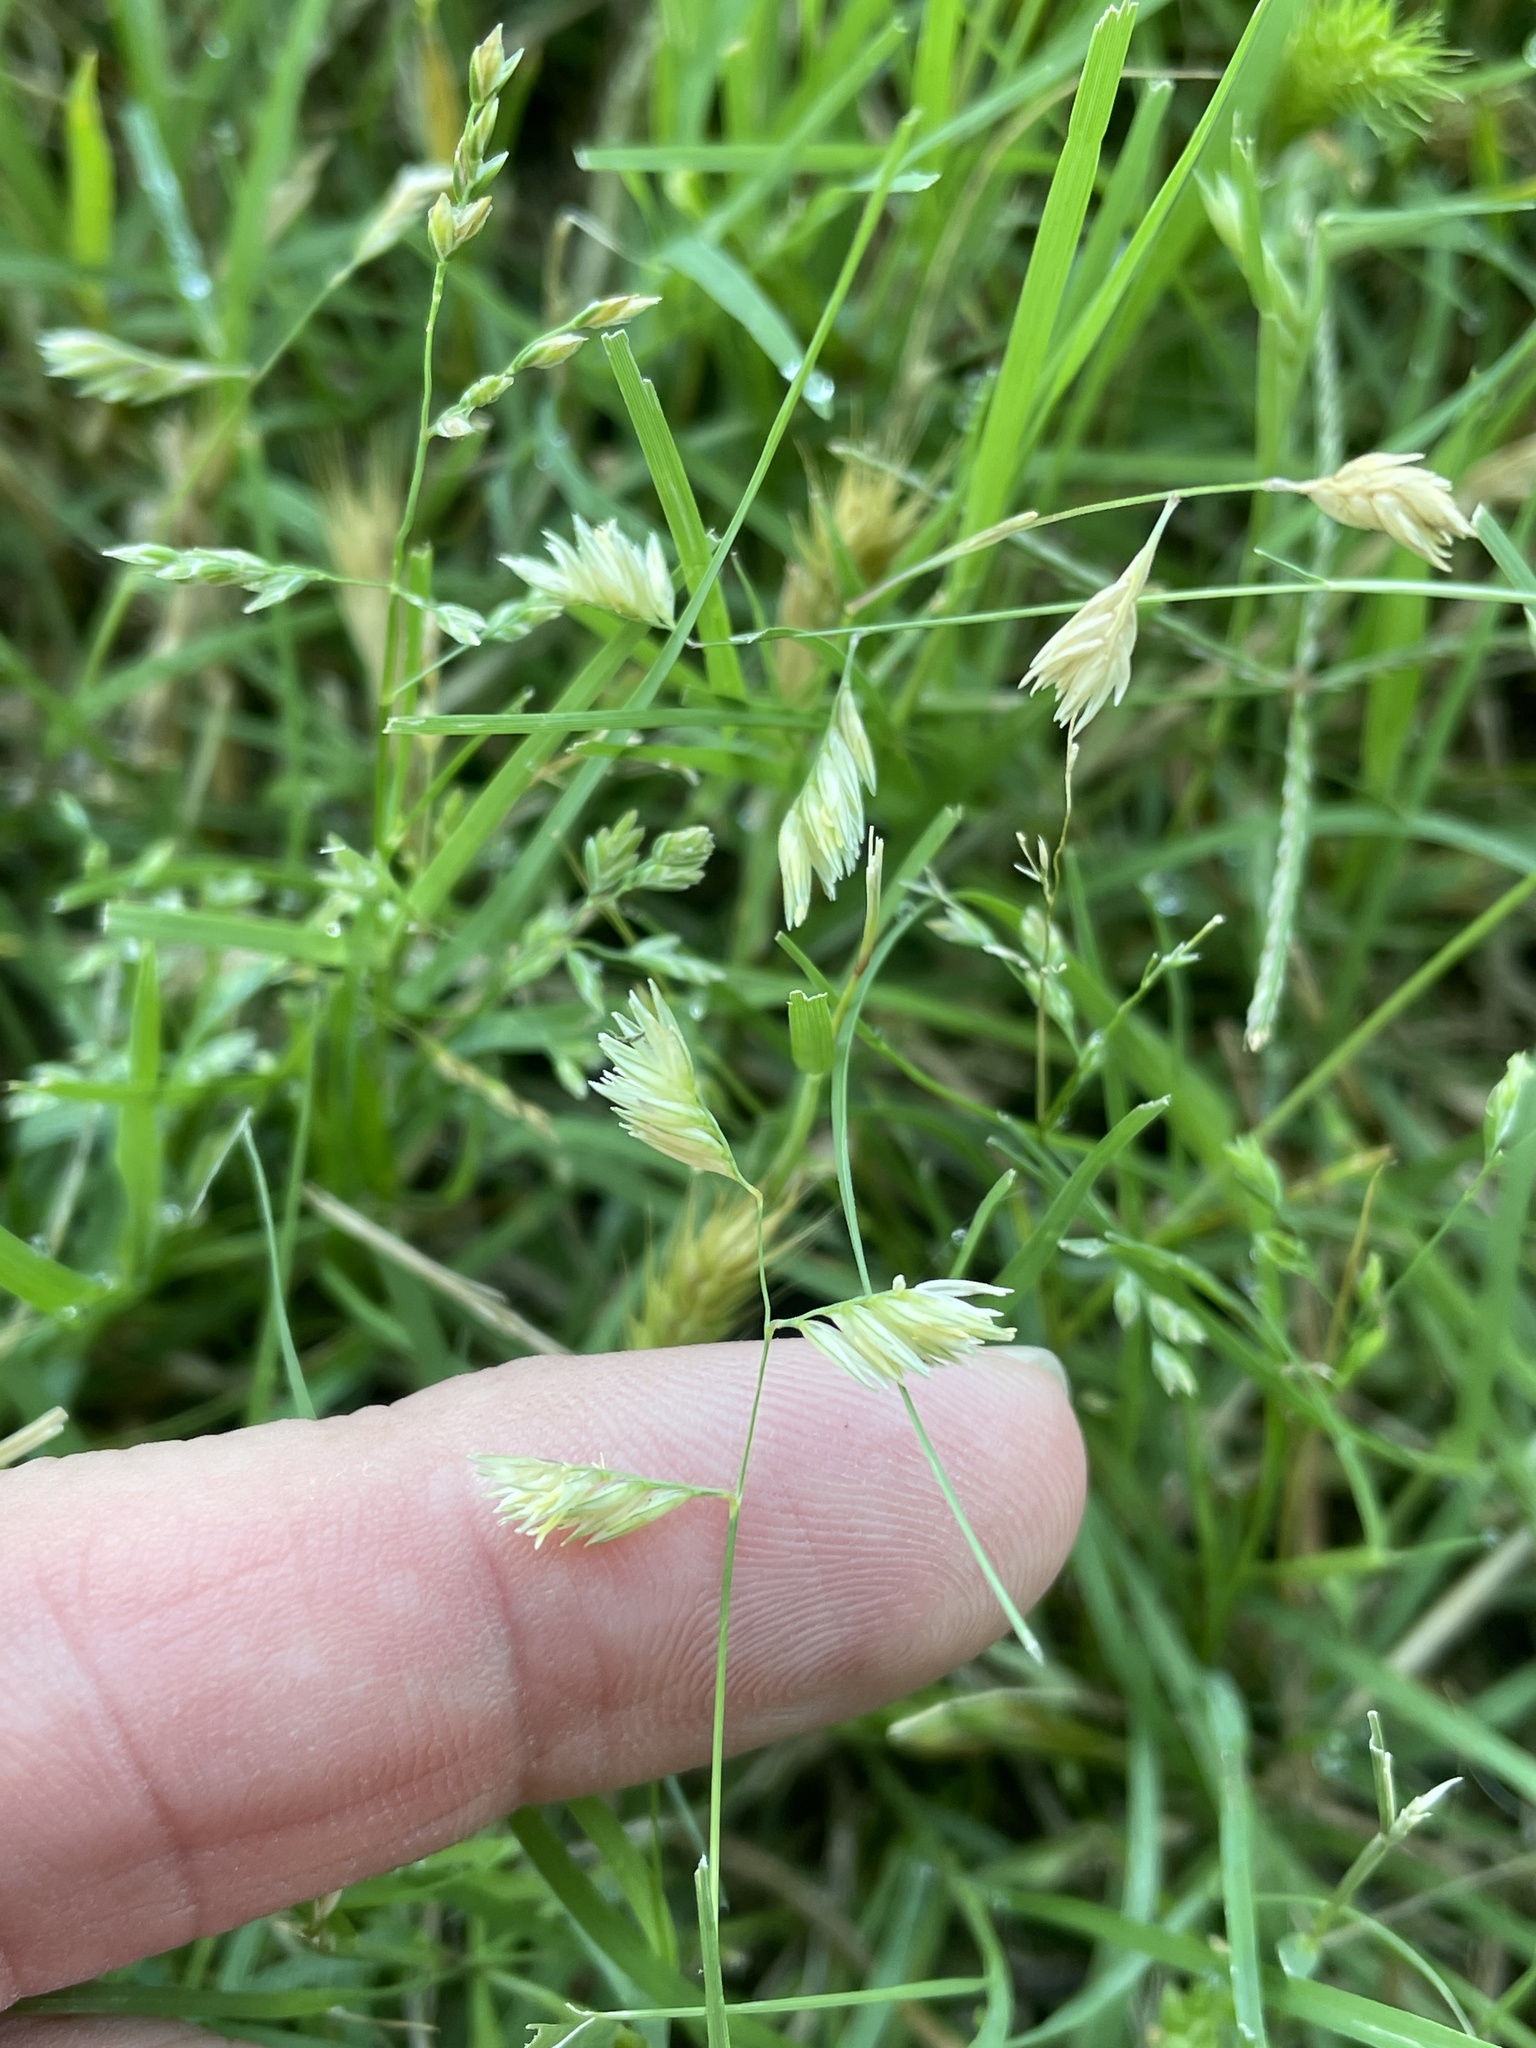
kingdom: Plantae
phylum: Tracheophyta
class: Liliopsida
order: Poales
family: Poaceae
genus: Bouteloua
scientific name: Bouteloua dactyloides
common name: Buffalo grass
